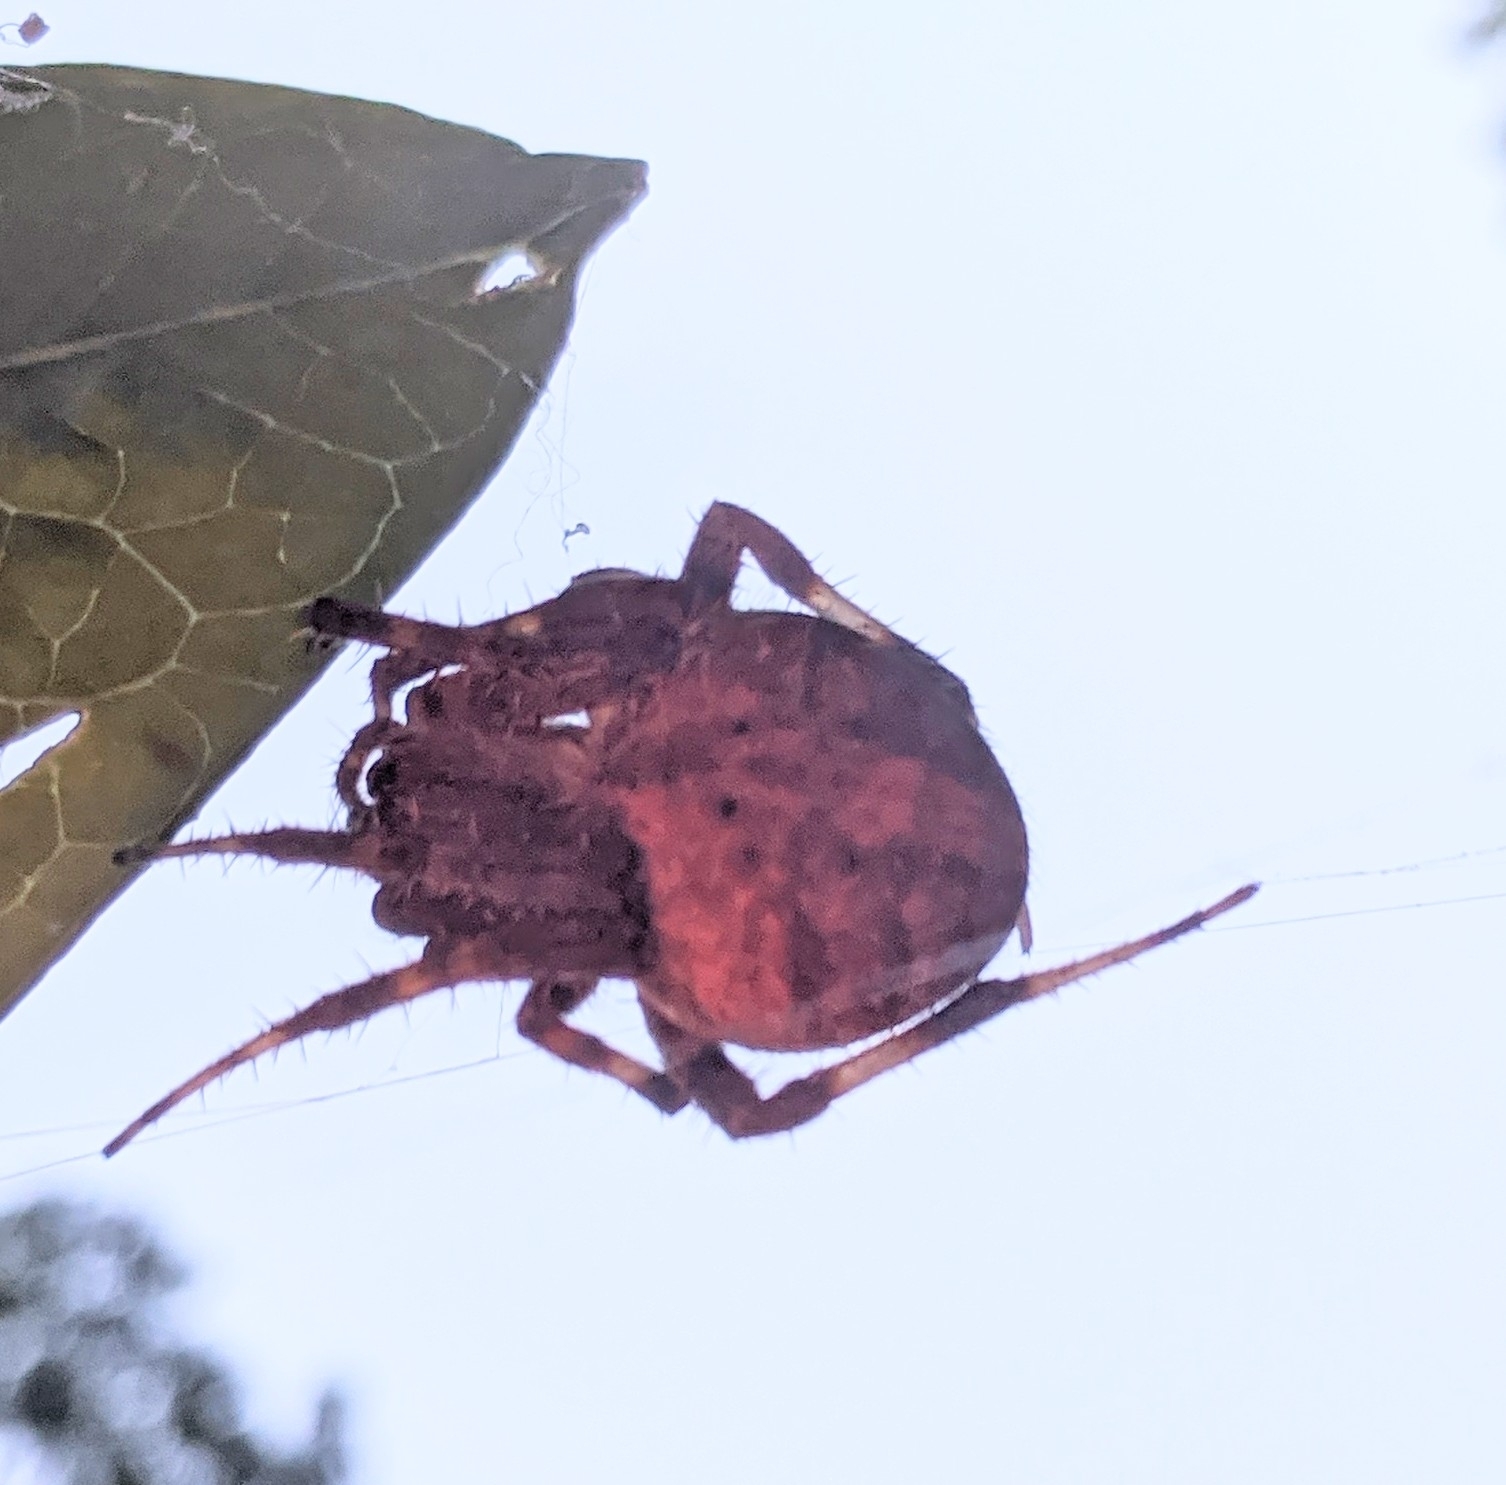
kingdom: Animalia
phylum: Arthropoda
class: Arachnida
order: Araneae
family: Araneidae
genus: Neoscona
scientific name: Neoscona crucifera
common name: Spotted orbweaver
